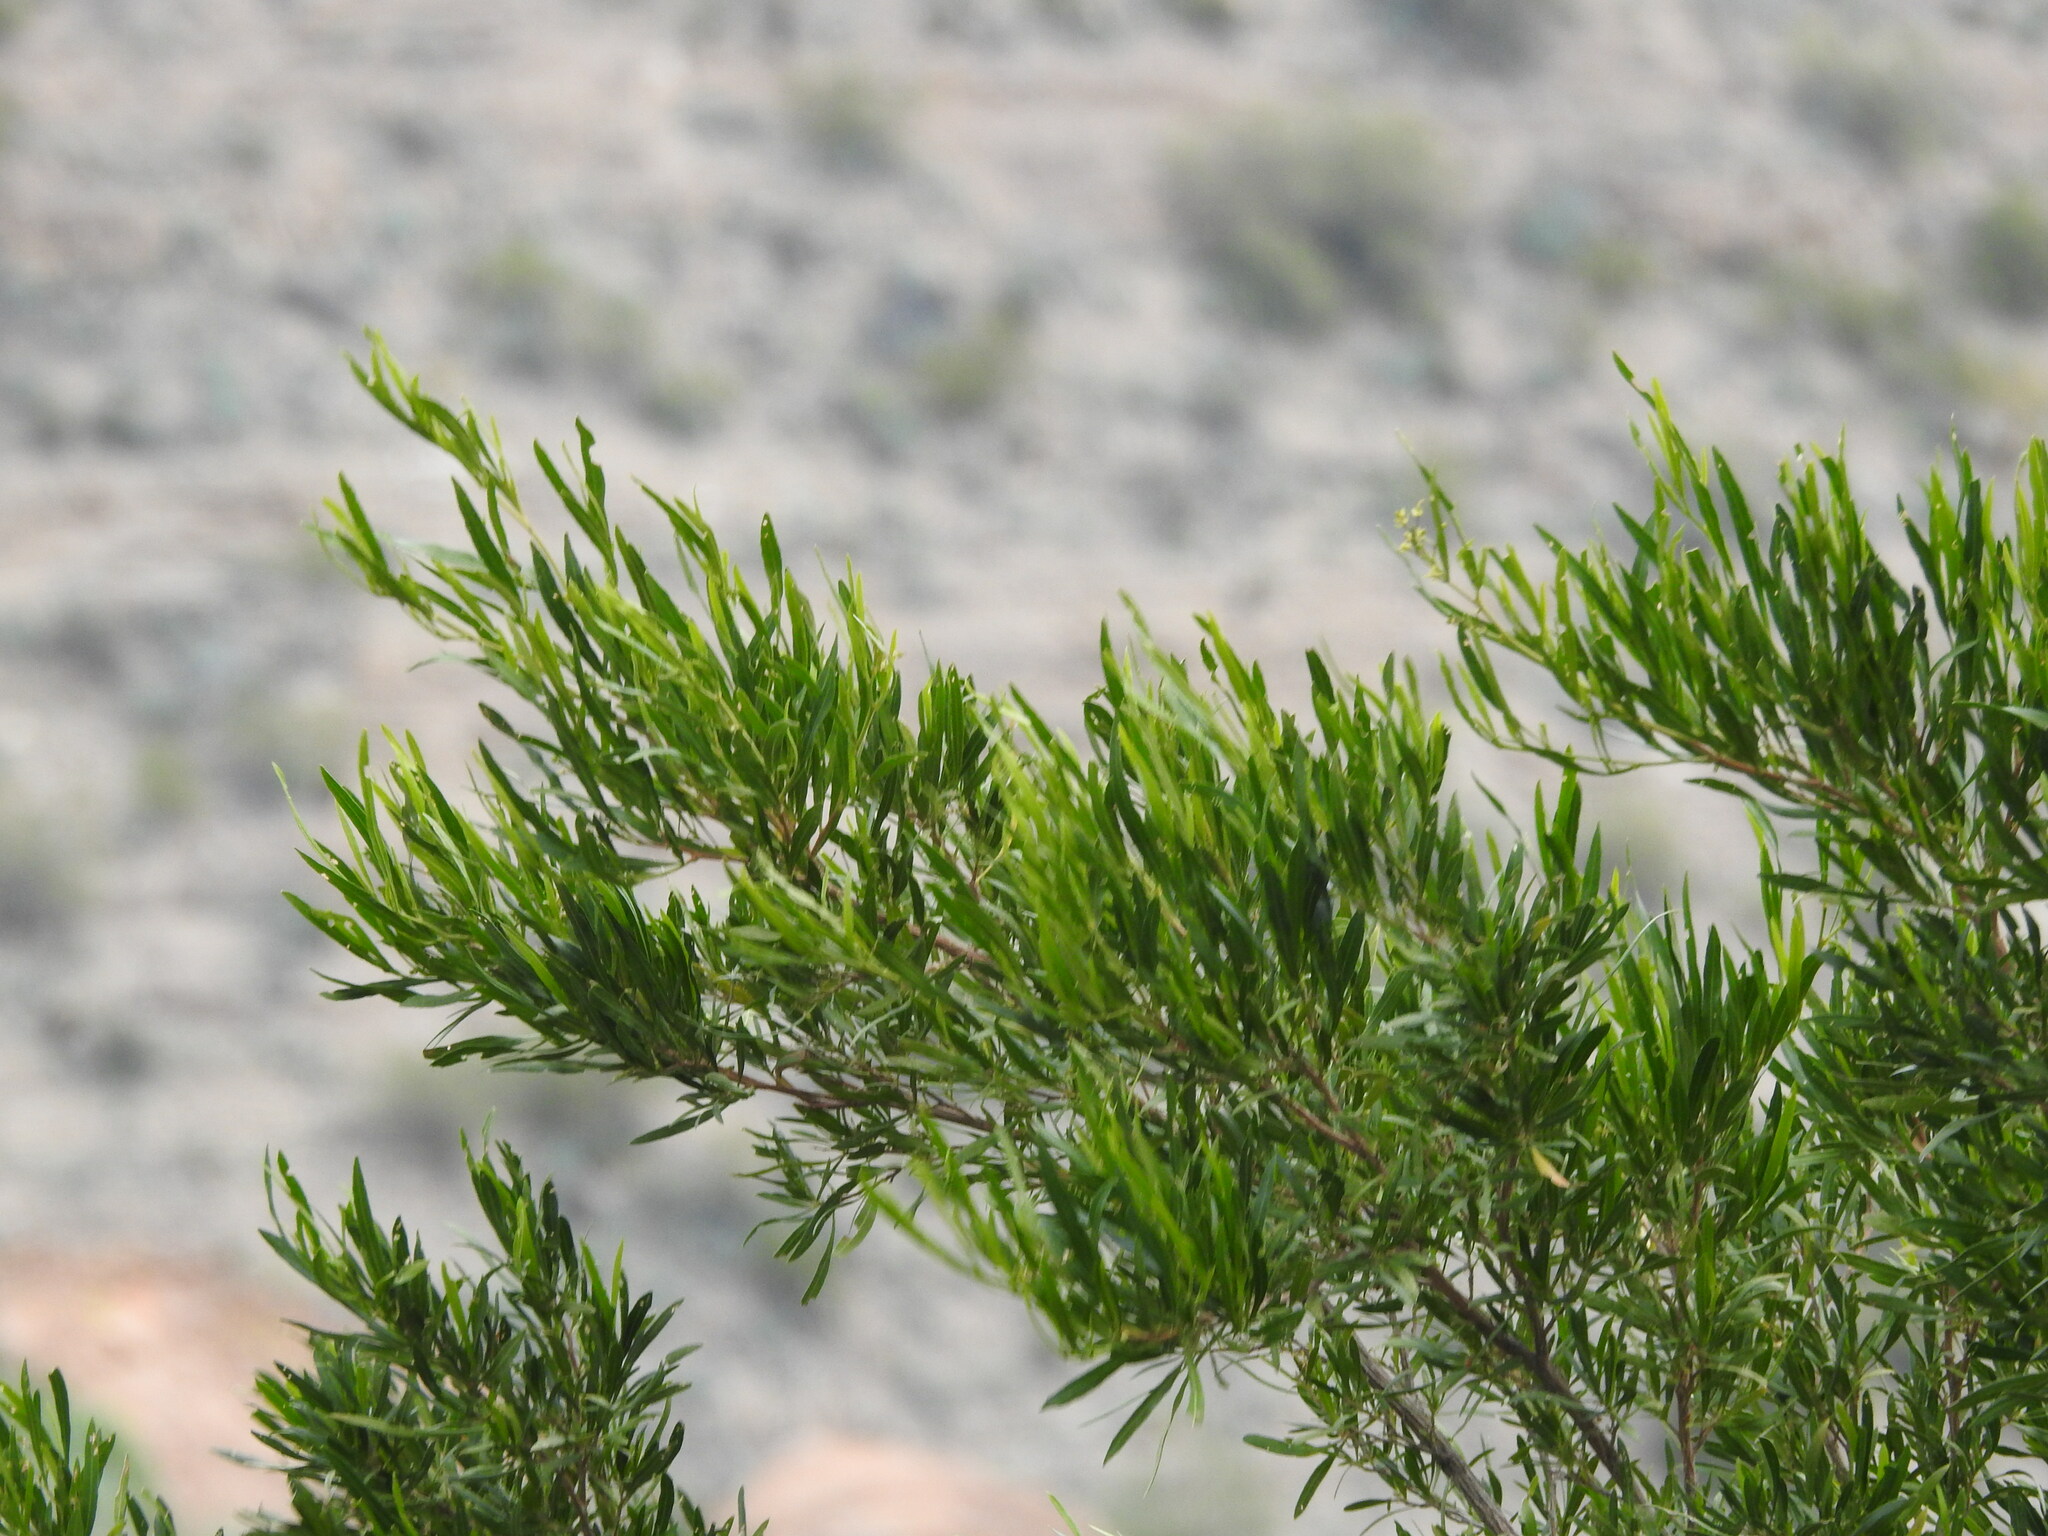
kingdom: Plantae
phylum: Tracheophyta
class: Magnoliopsida
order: Sapindales
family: Sapindaceae
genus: Dodonaea
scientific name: Dodonaea viscosa
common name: Hopbush
